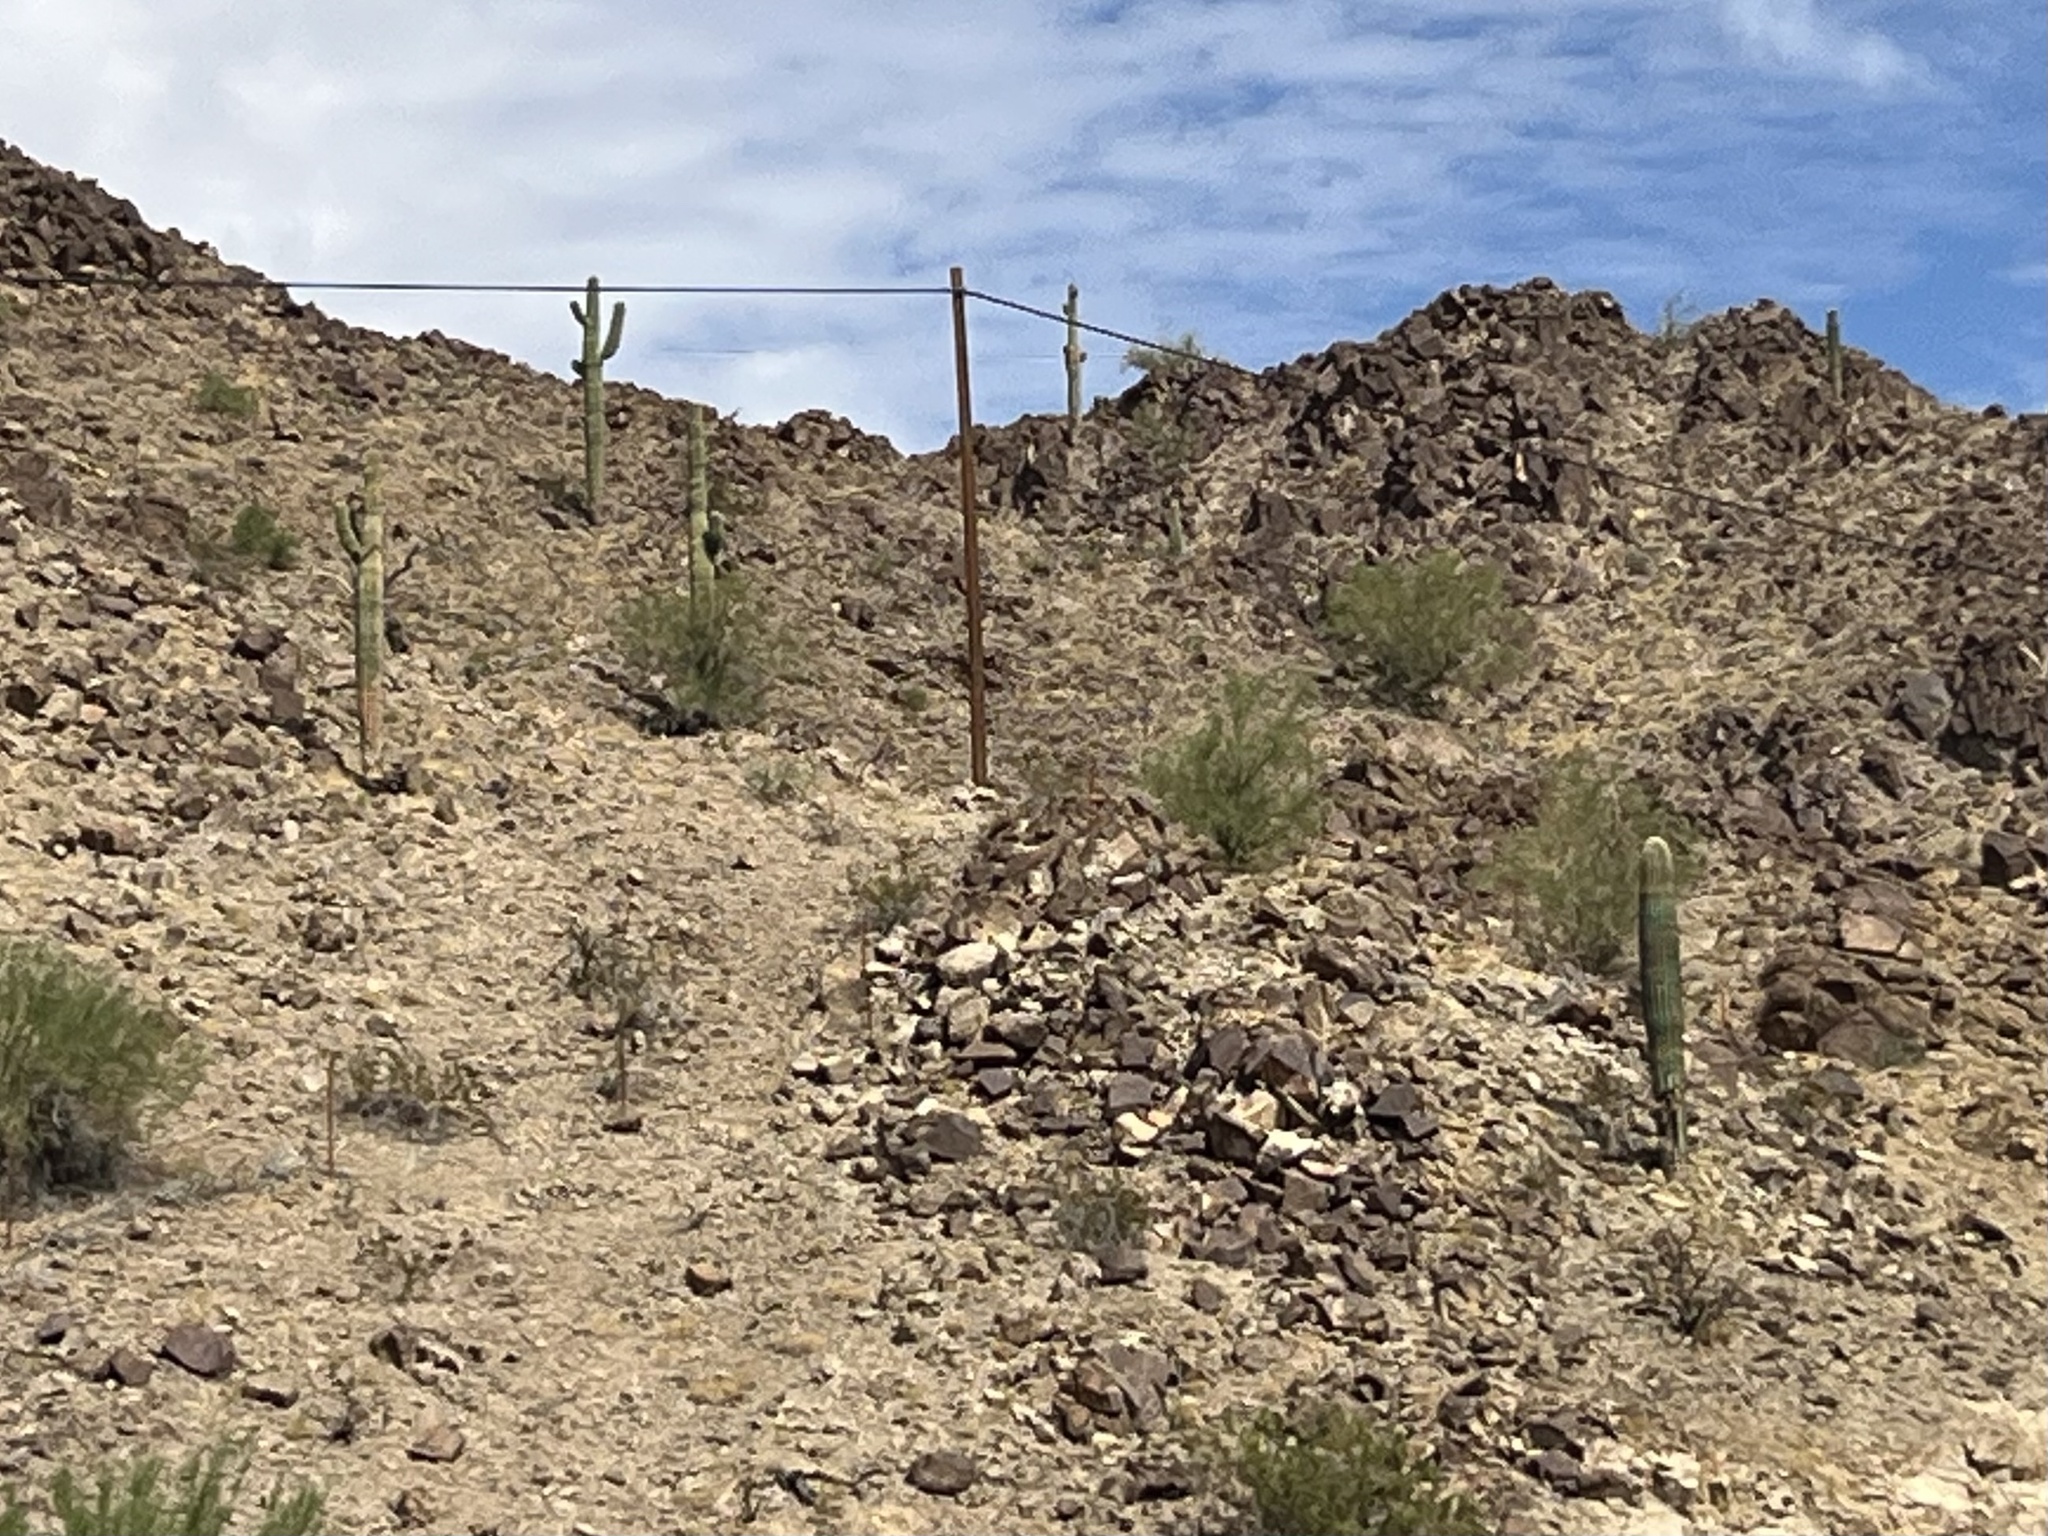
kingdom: Plantae
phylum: Tracheophyta
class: Magnoliopsida
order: Caryophyllales
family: Cactaceae
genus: Carnegiea
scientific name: Carnegiea gigantea
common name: Saguaro
